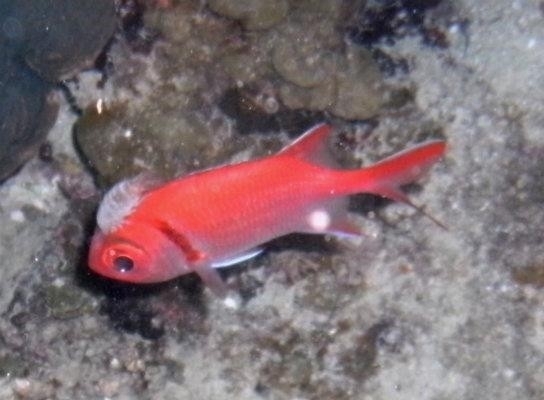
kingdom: Animalia
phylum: Chordata
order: Beryciformes
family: Holocentridae
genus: Myripristis
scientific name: Myripristis jacobus
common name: Blackbar soldierfish
